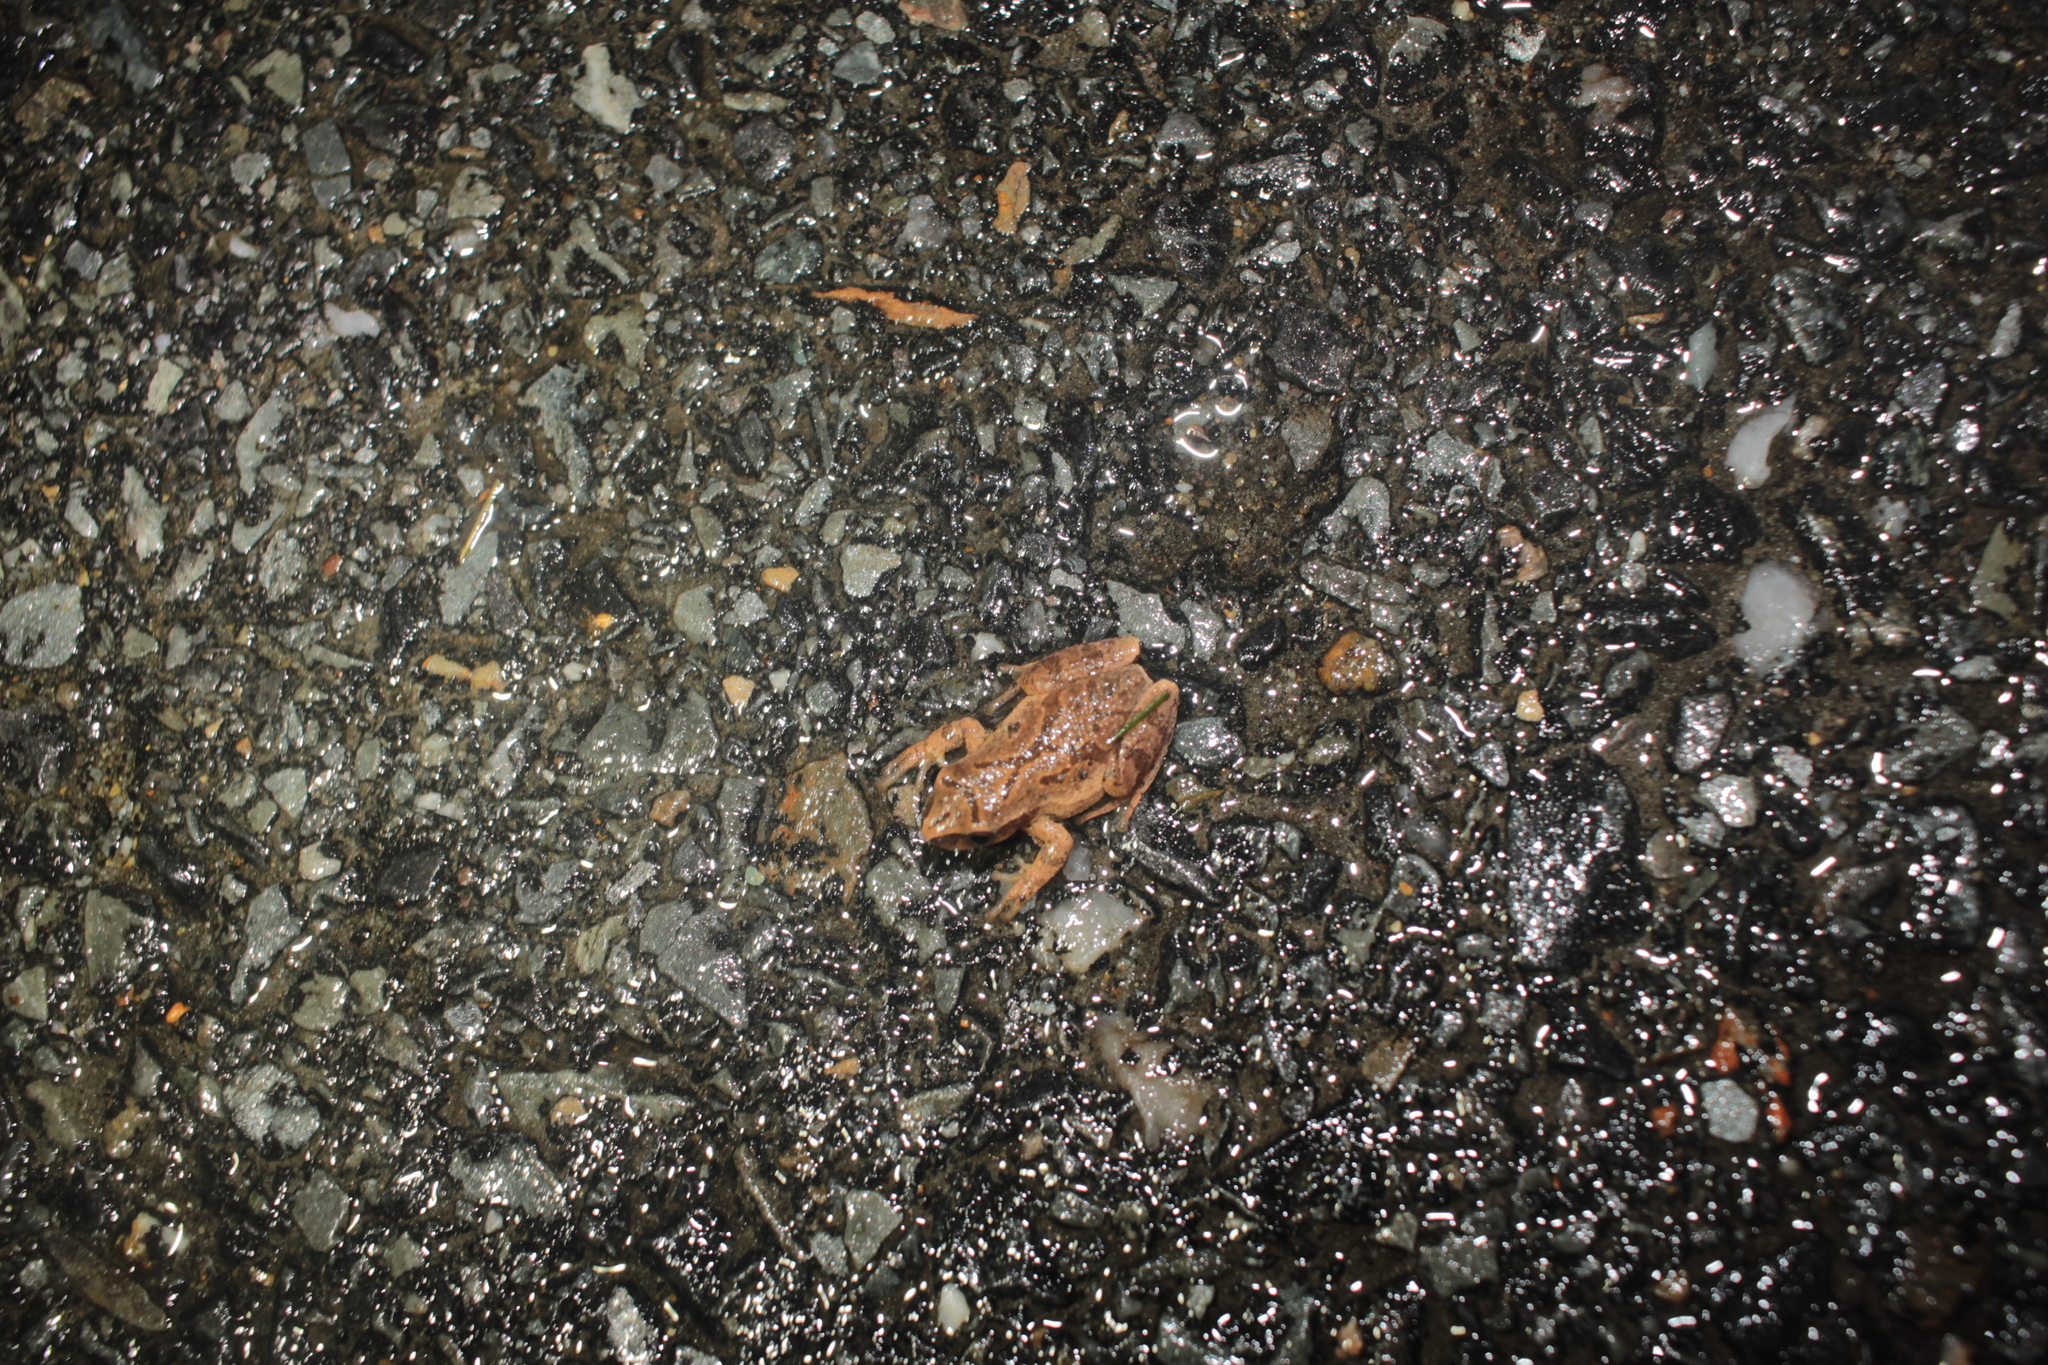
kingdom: Animalia
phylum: Chordata
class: Amphibia
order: Anura
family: Hylidae
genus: Pseudacris
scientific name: Pseudacris crucifer
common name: Spring peeper
